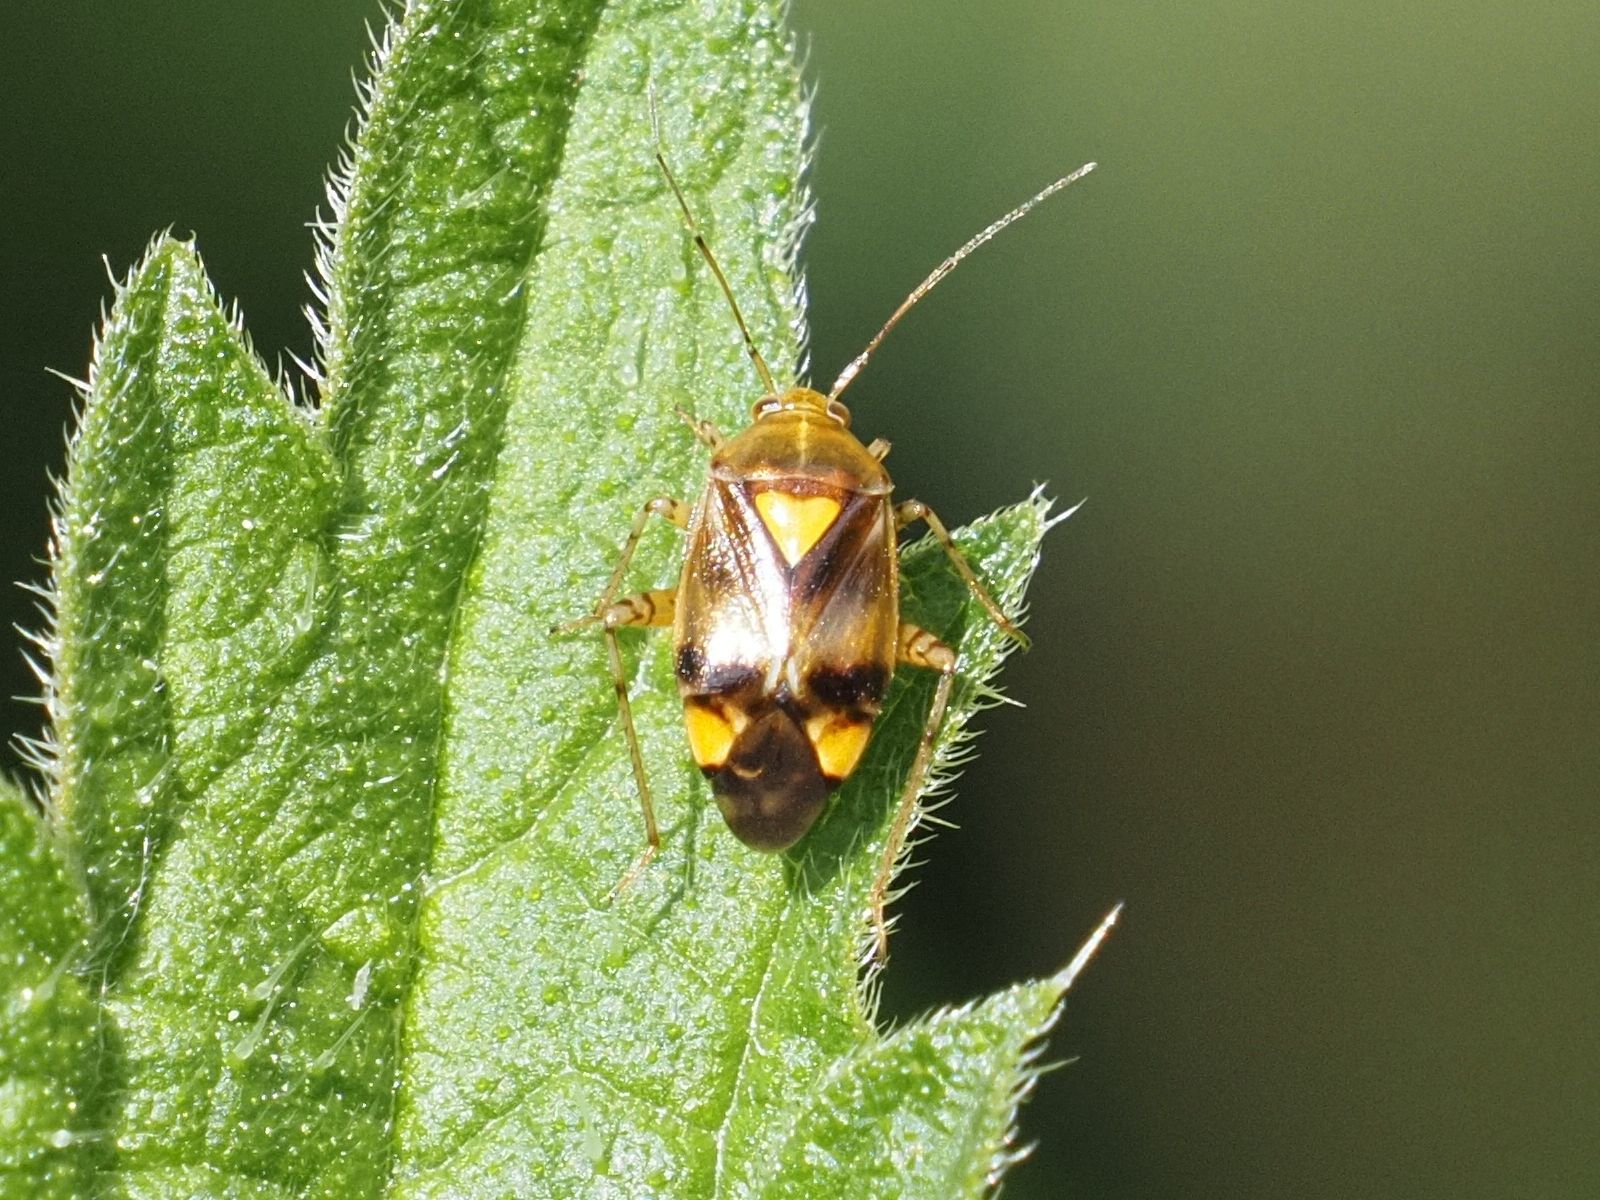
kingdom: Animalia
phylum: Arthropoda
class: Insecta
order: Hemiptera
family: Miridae
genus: Liocoris
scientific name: Liocoris tripustulatus
